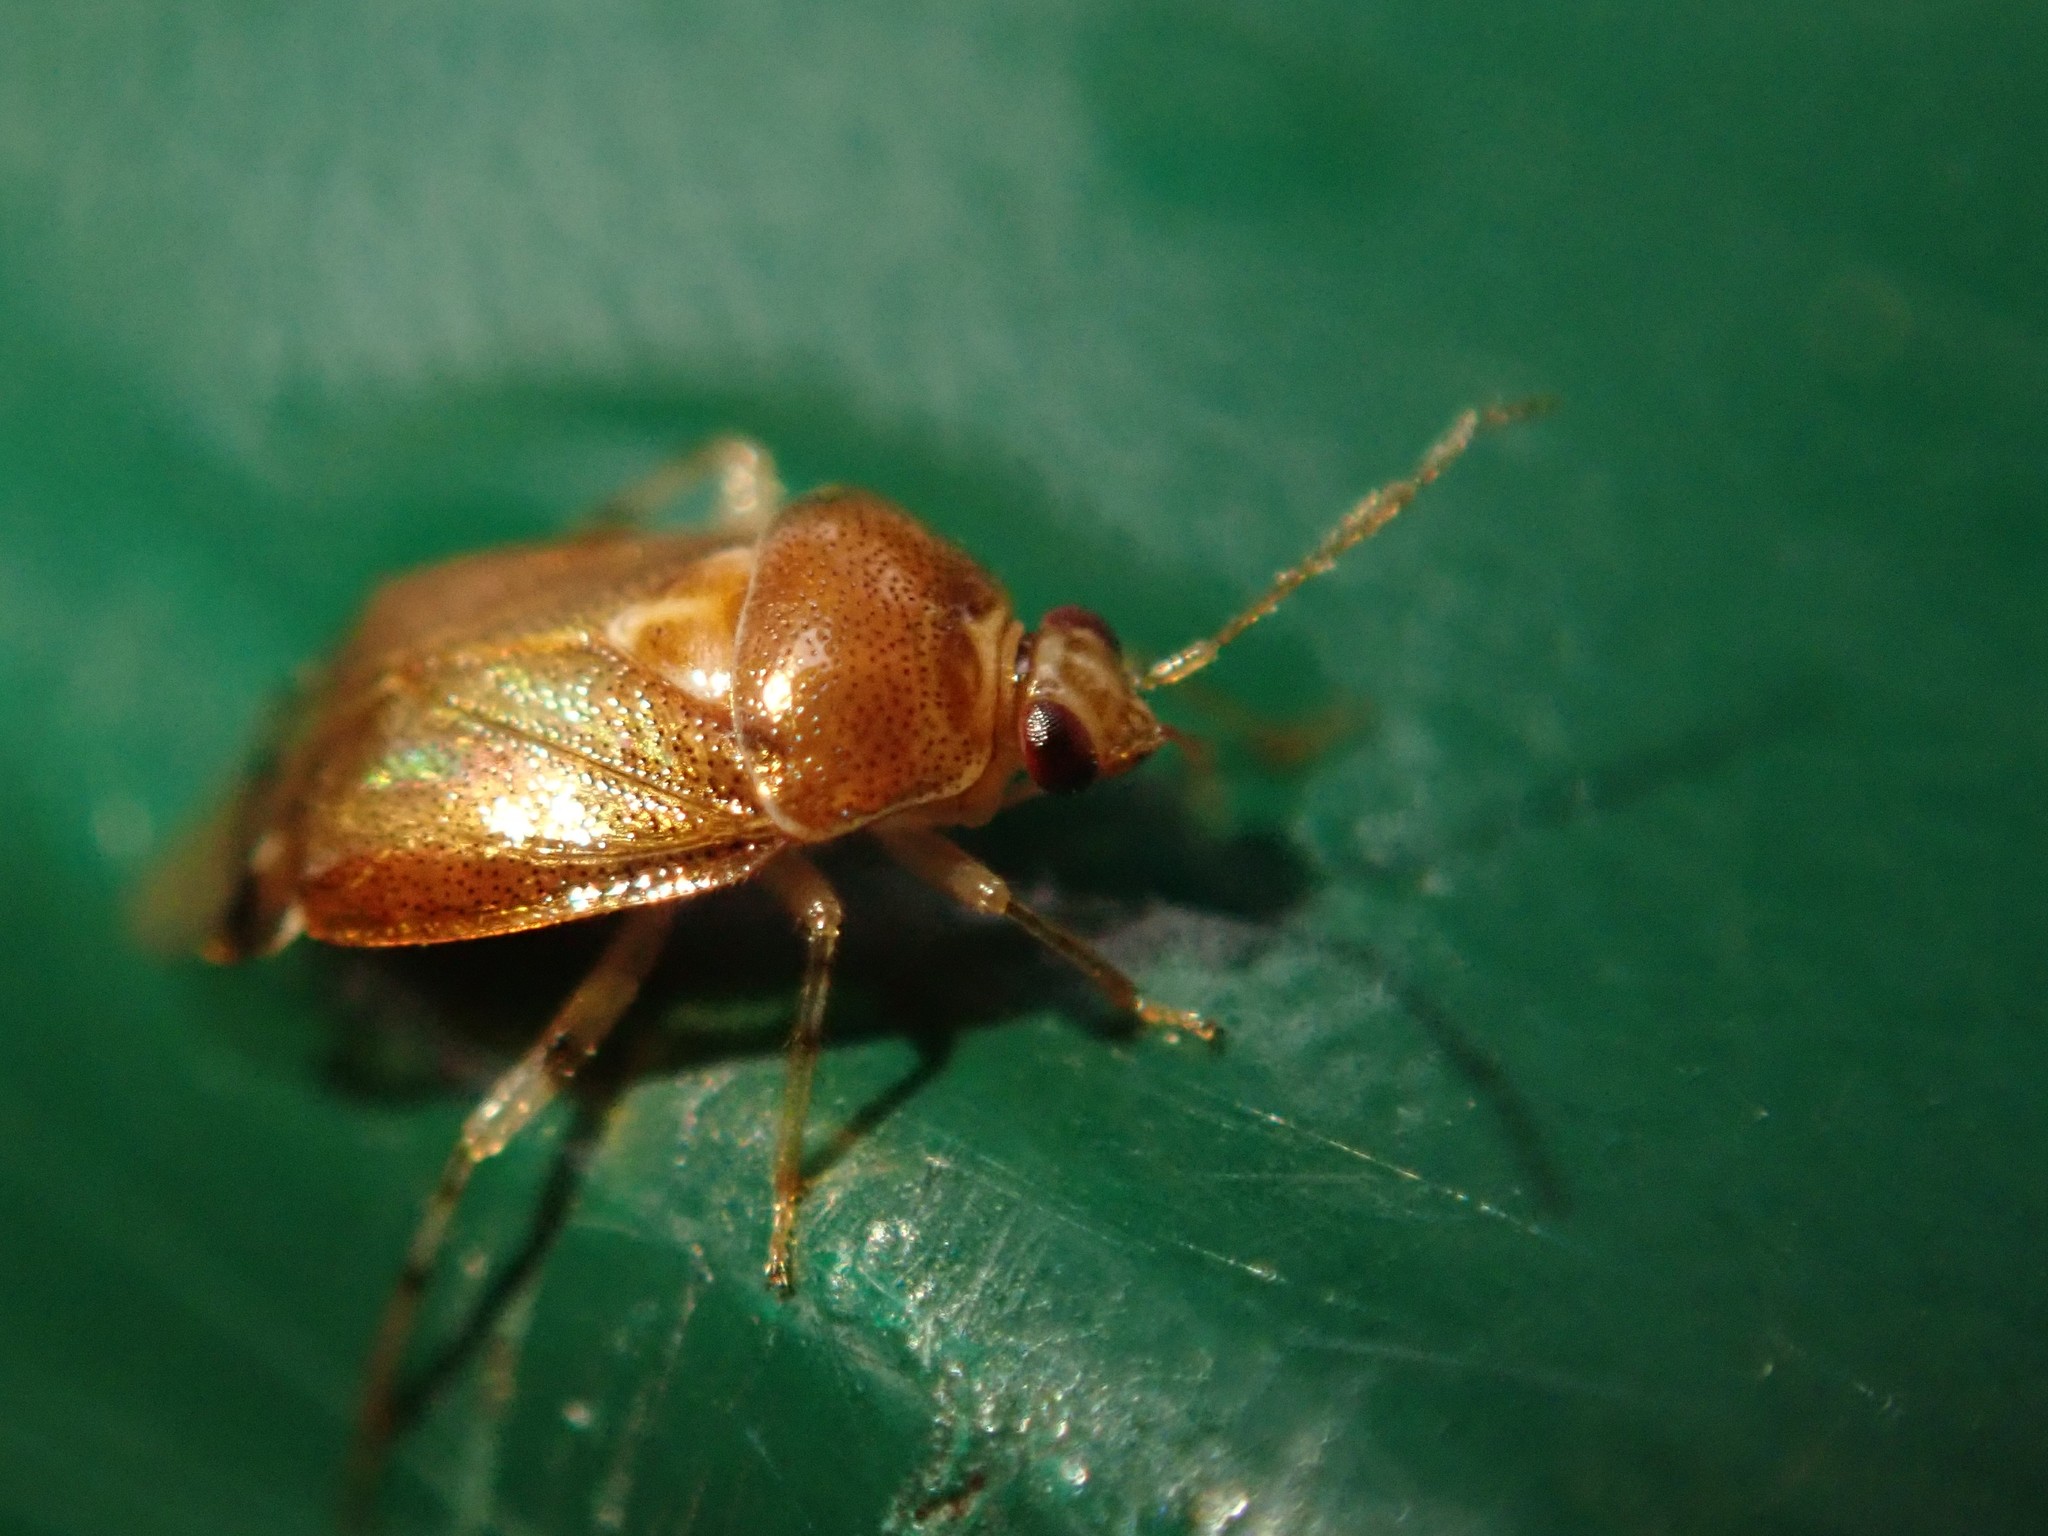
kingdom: Animalia
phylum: Arthropoda
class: Insecta
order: Hemiptera
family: Miridae
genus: Deraeocoris
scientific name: Deraeocoris lutescens
